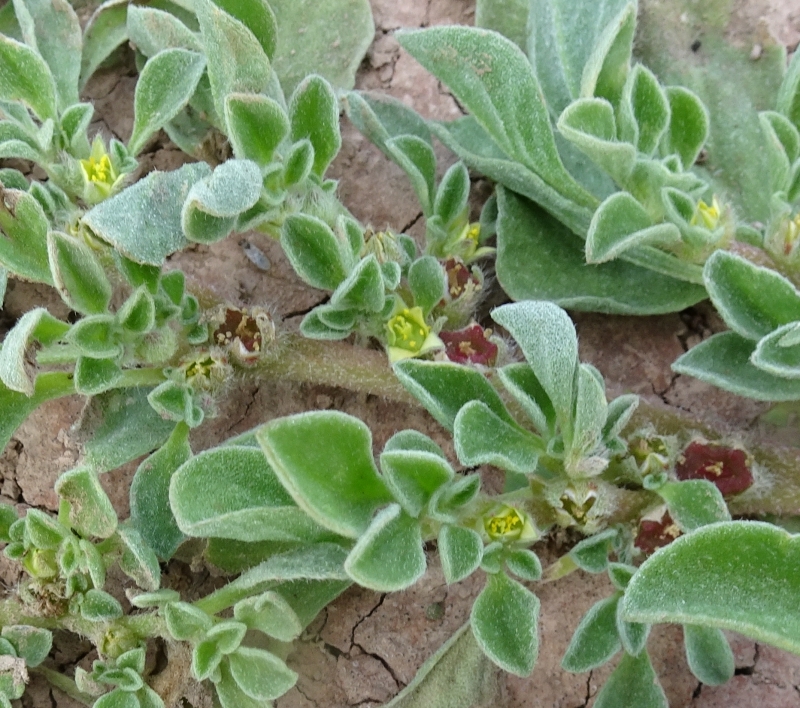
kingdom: Plantae
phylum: Tracheophyta
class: Magnoliopsida
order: Caryophyllales
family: Aizoaceae
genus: Aizoon
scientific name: Aizoon canariense
